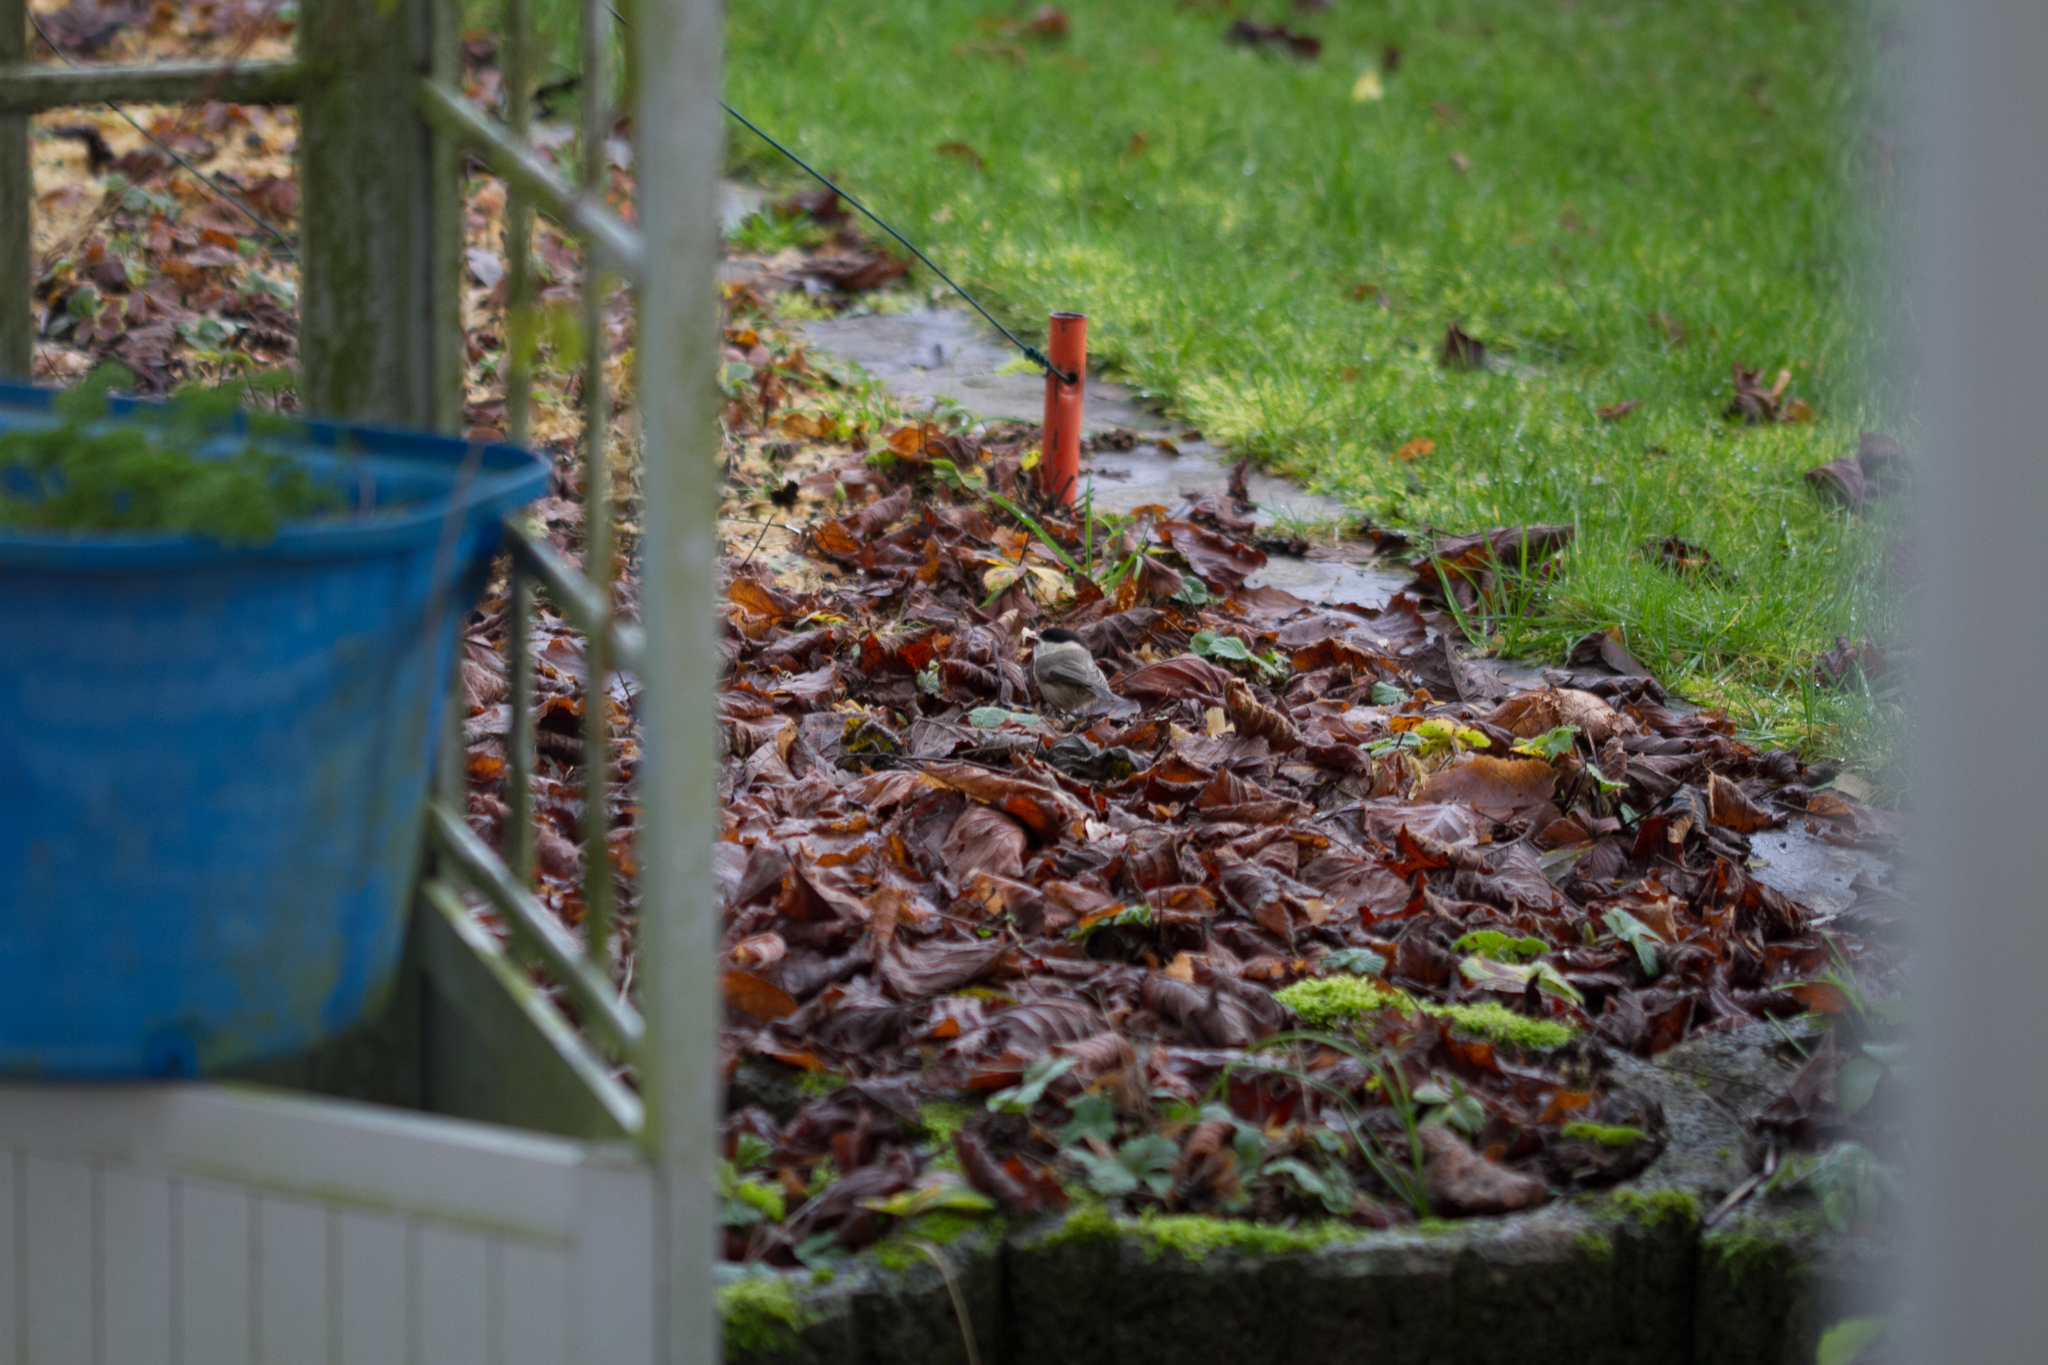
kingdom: Animalia
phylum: Chordata
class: Aves
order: Passeriformes
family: Paridae
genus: Poecile
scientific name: Poecile palustris
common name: Marsh tit
